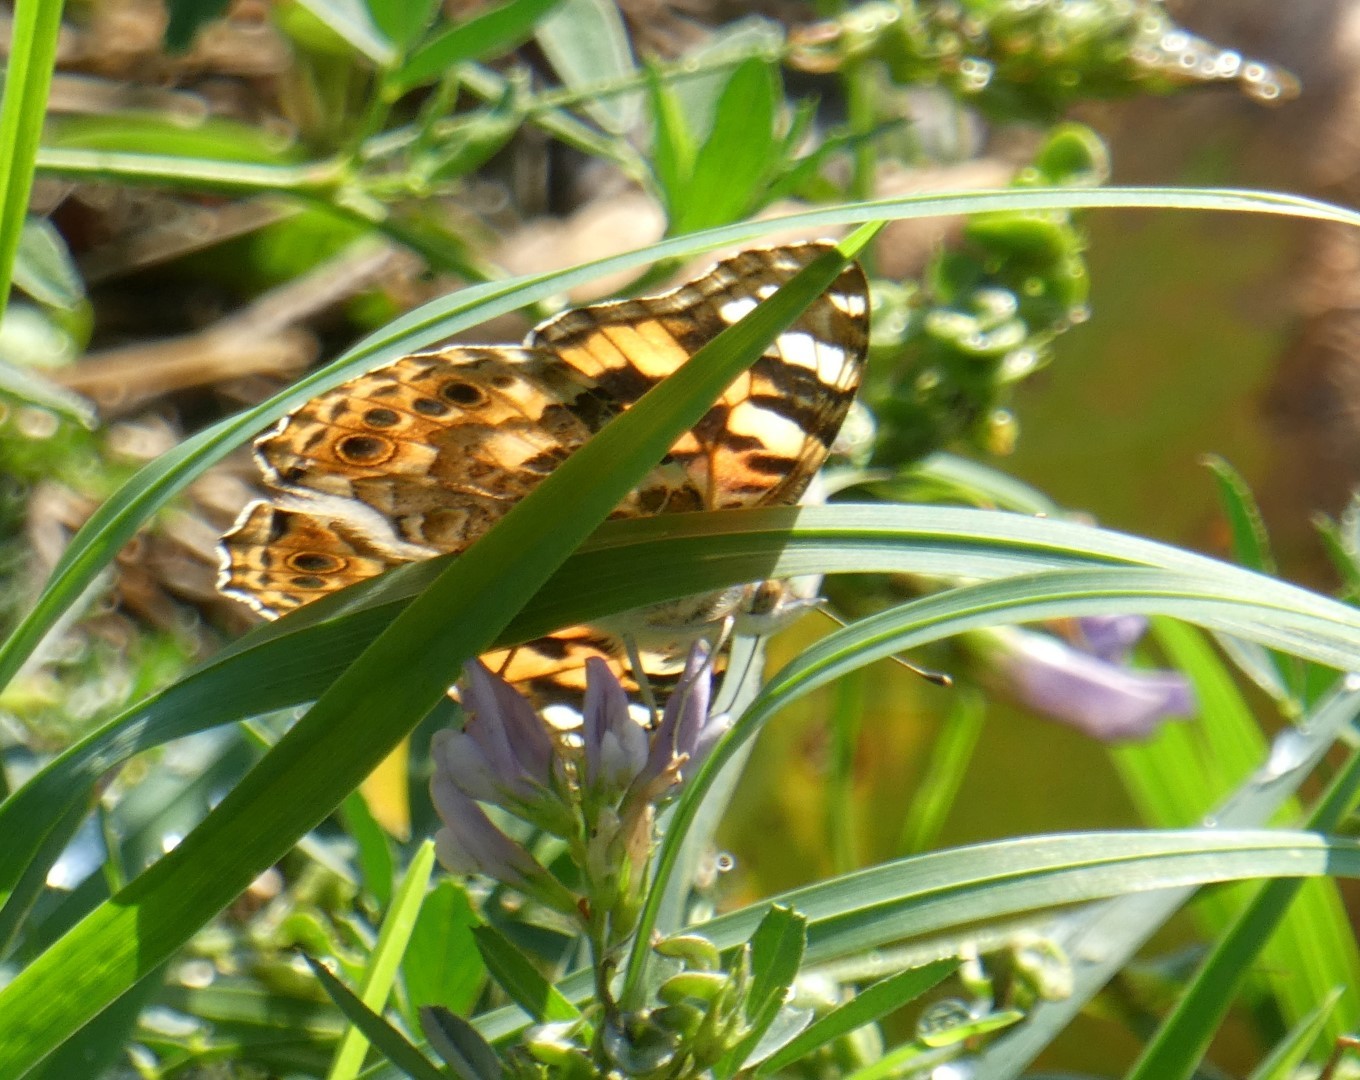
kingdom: Animalia
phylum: Arthropoda
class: Insecta
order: Lepidoptera
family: Nymphalidae
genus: Vanessa
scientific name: Vanessa cardui
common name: Painted lady
